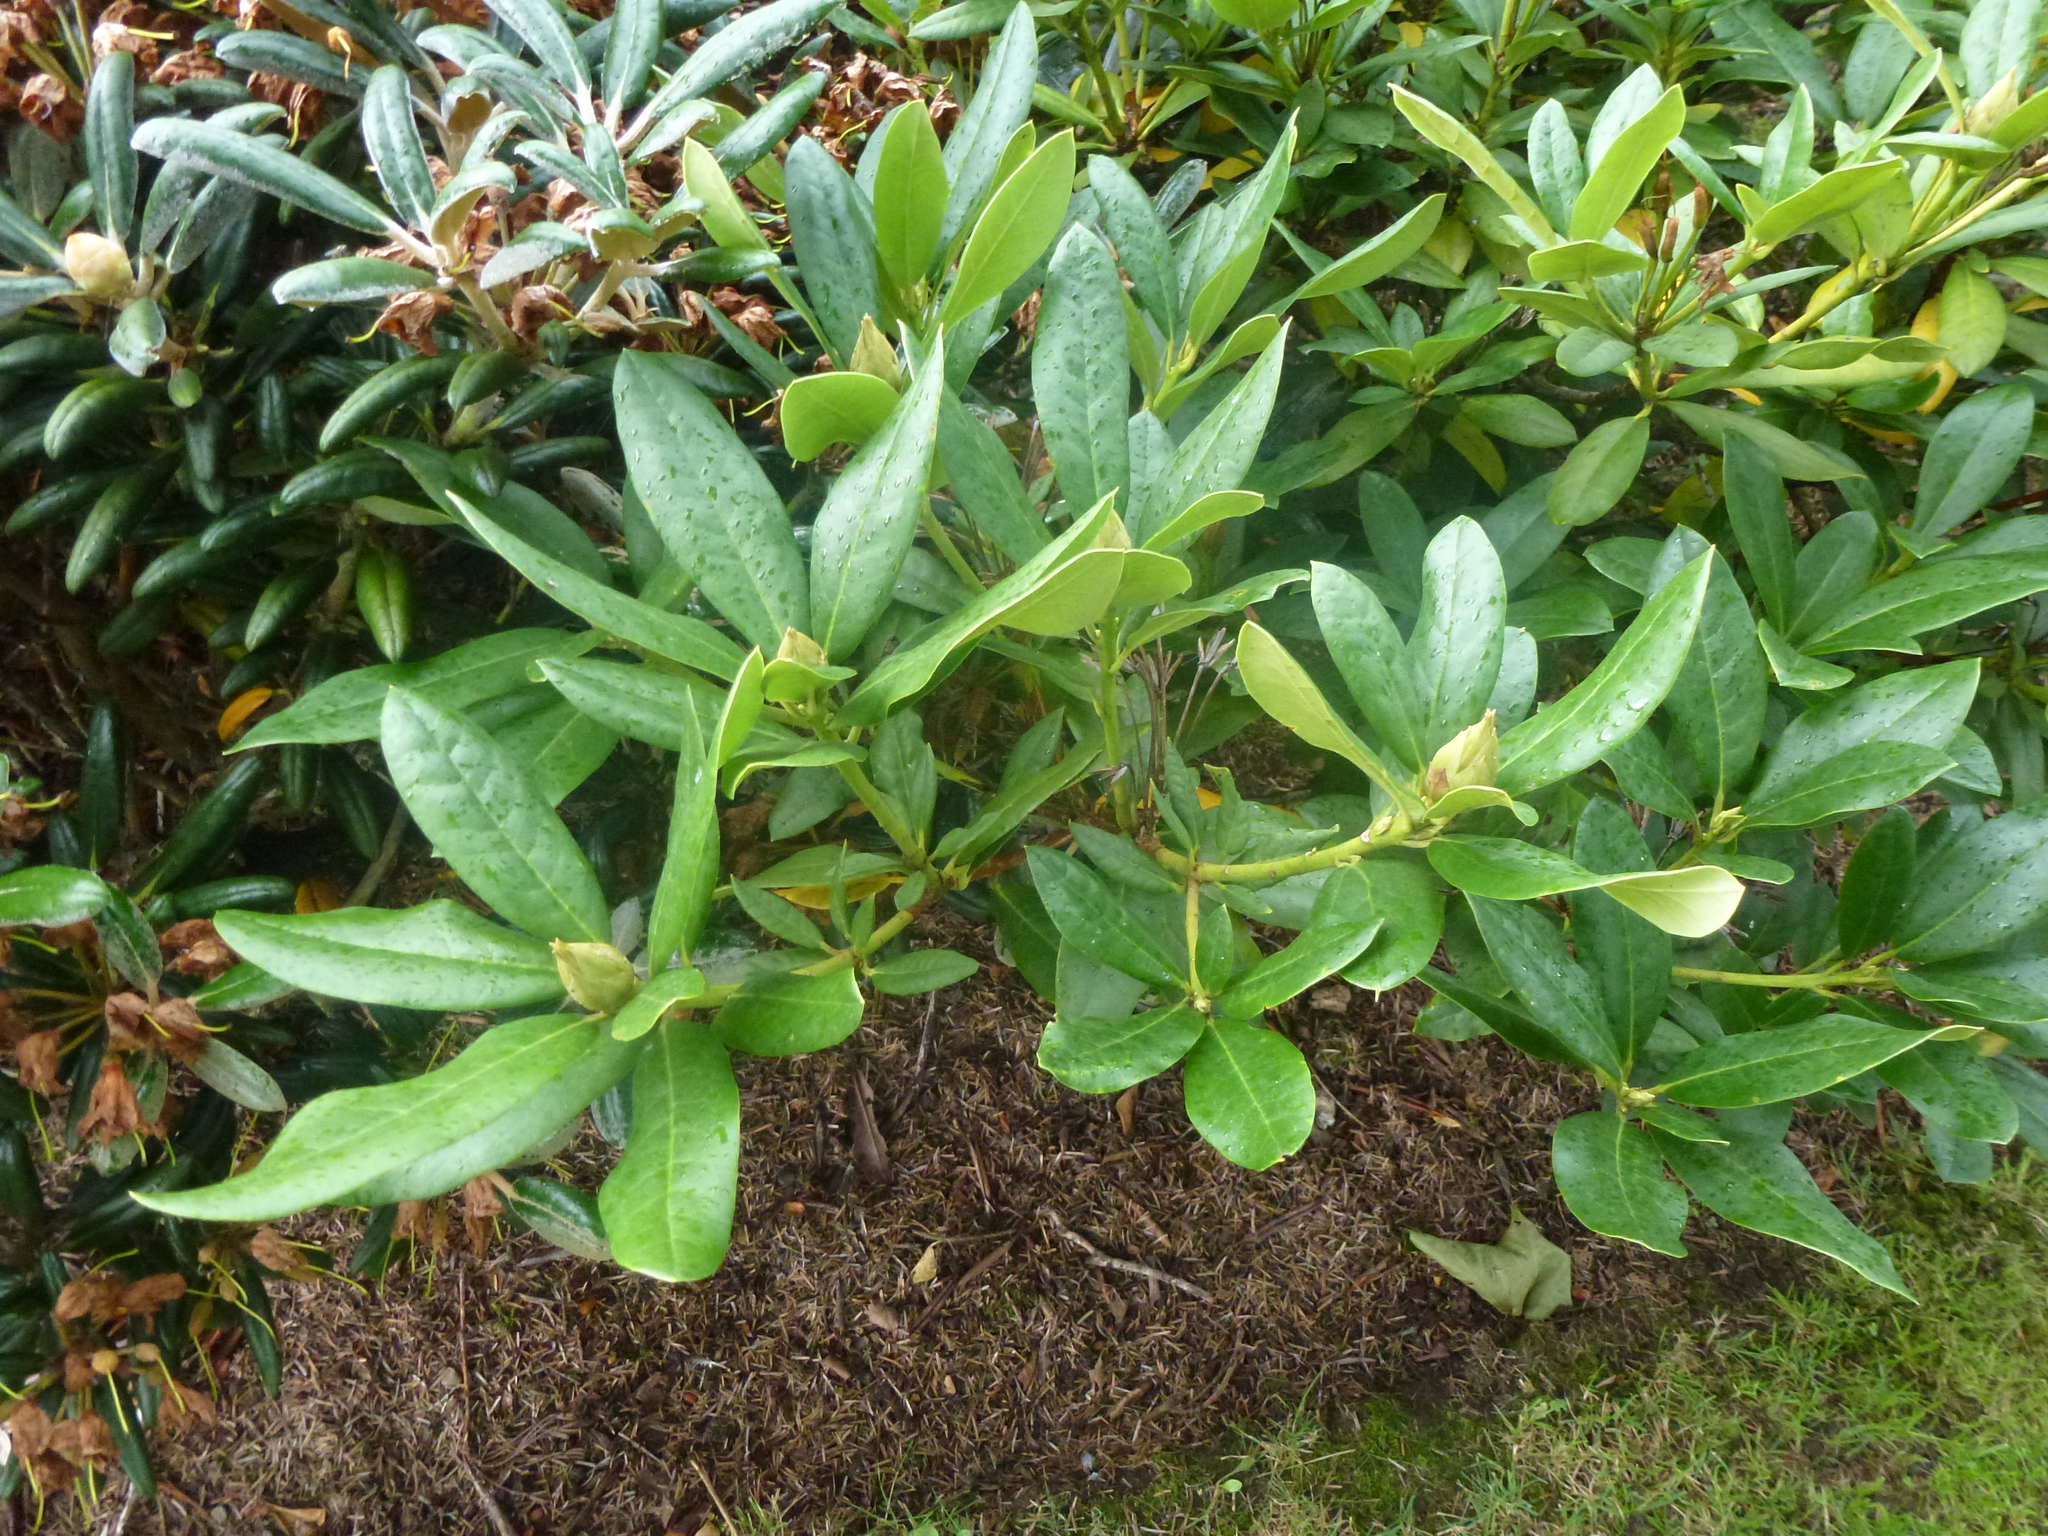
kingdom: Plantae
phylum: Tracheophyta
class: Magnoliopsida
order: Ericales
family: Ericaceae
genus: Rhododendron
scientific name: Rhododendron ponticum
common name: Rhododendron
